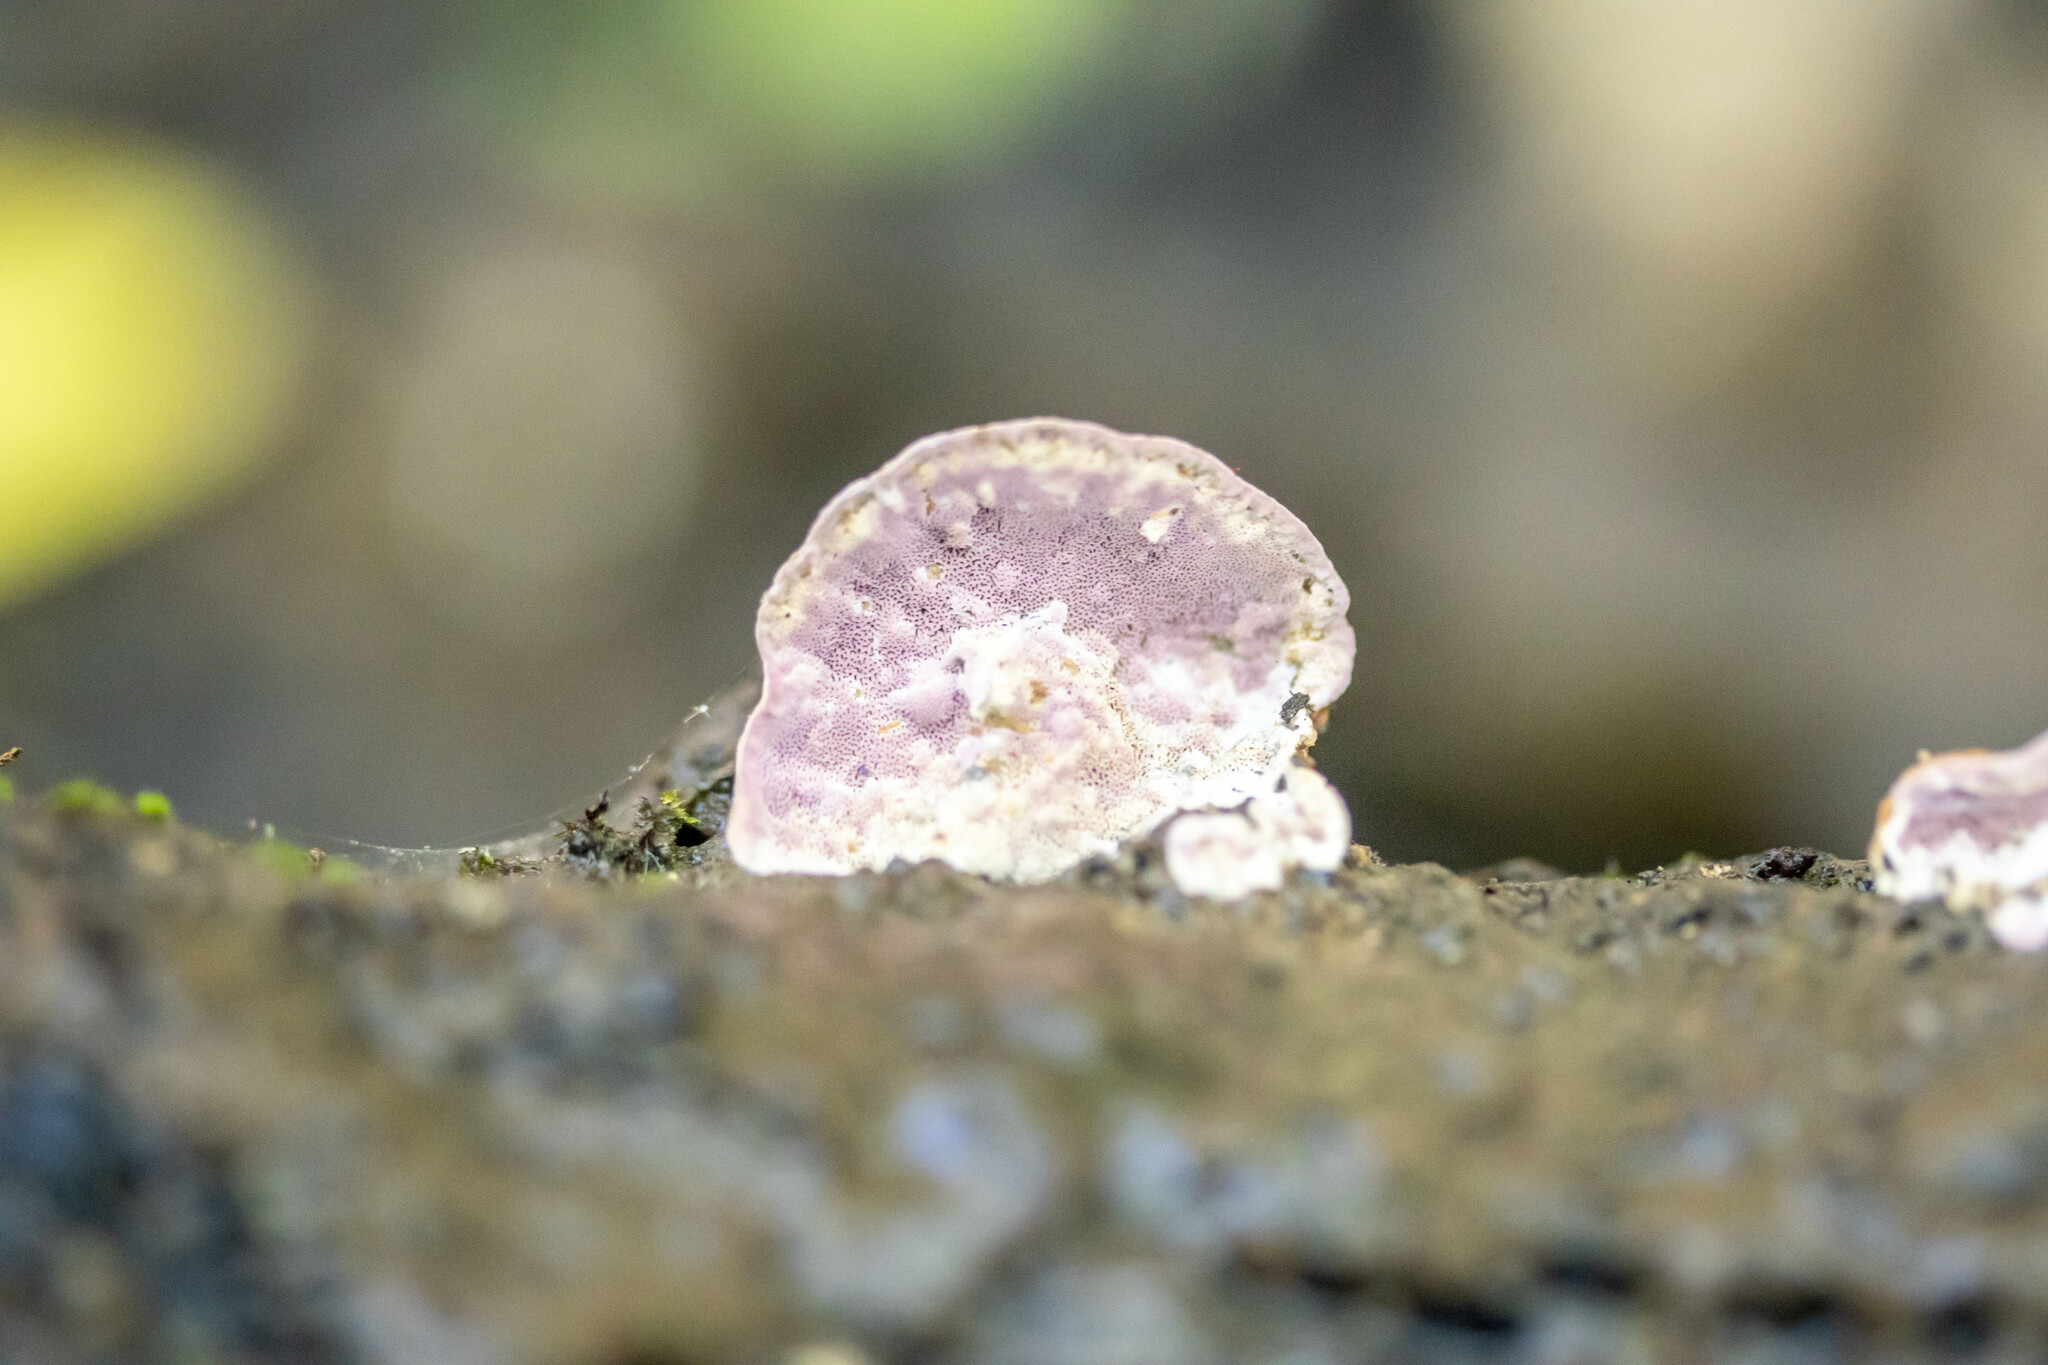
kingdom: Fungi
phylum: Basidiomycota
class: Agaricomycetes
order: Polyporales
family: Incrustoporiaceae
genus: Skeletocutis
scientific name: Skeletocutis lilacina
